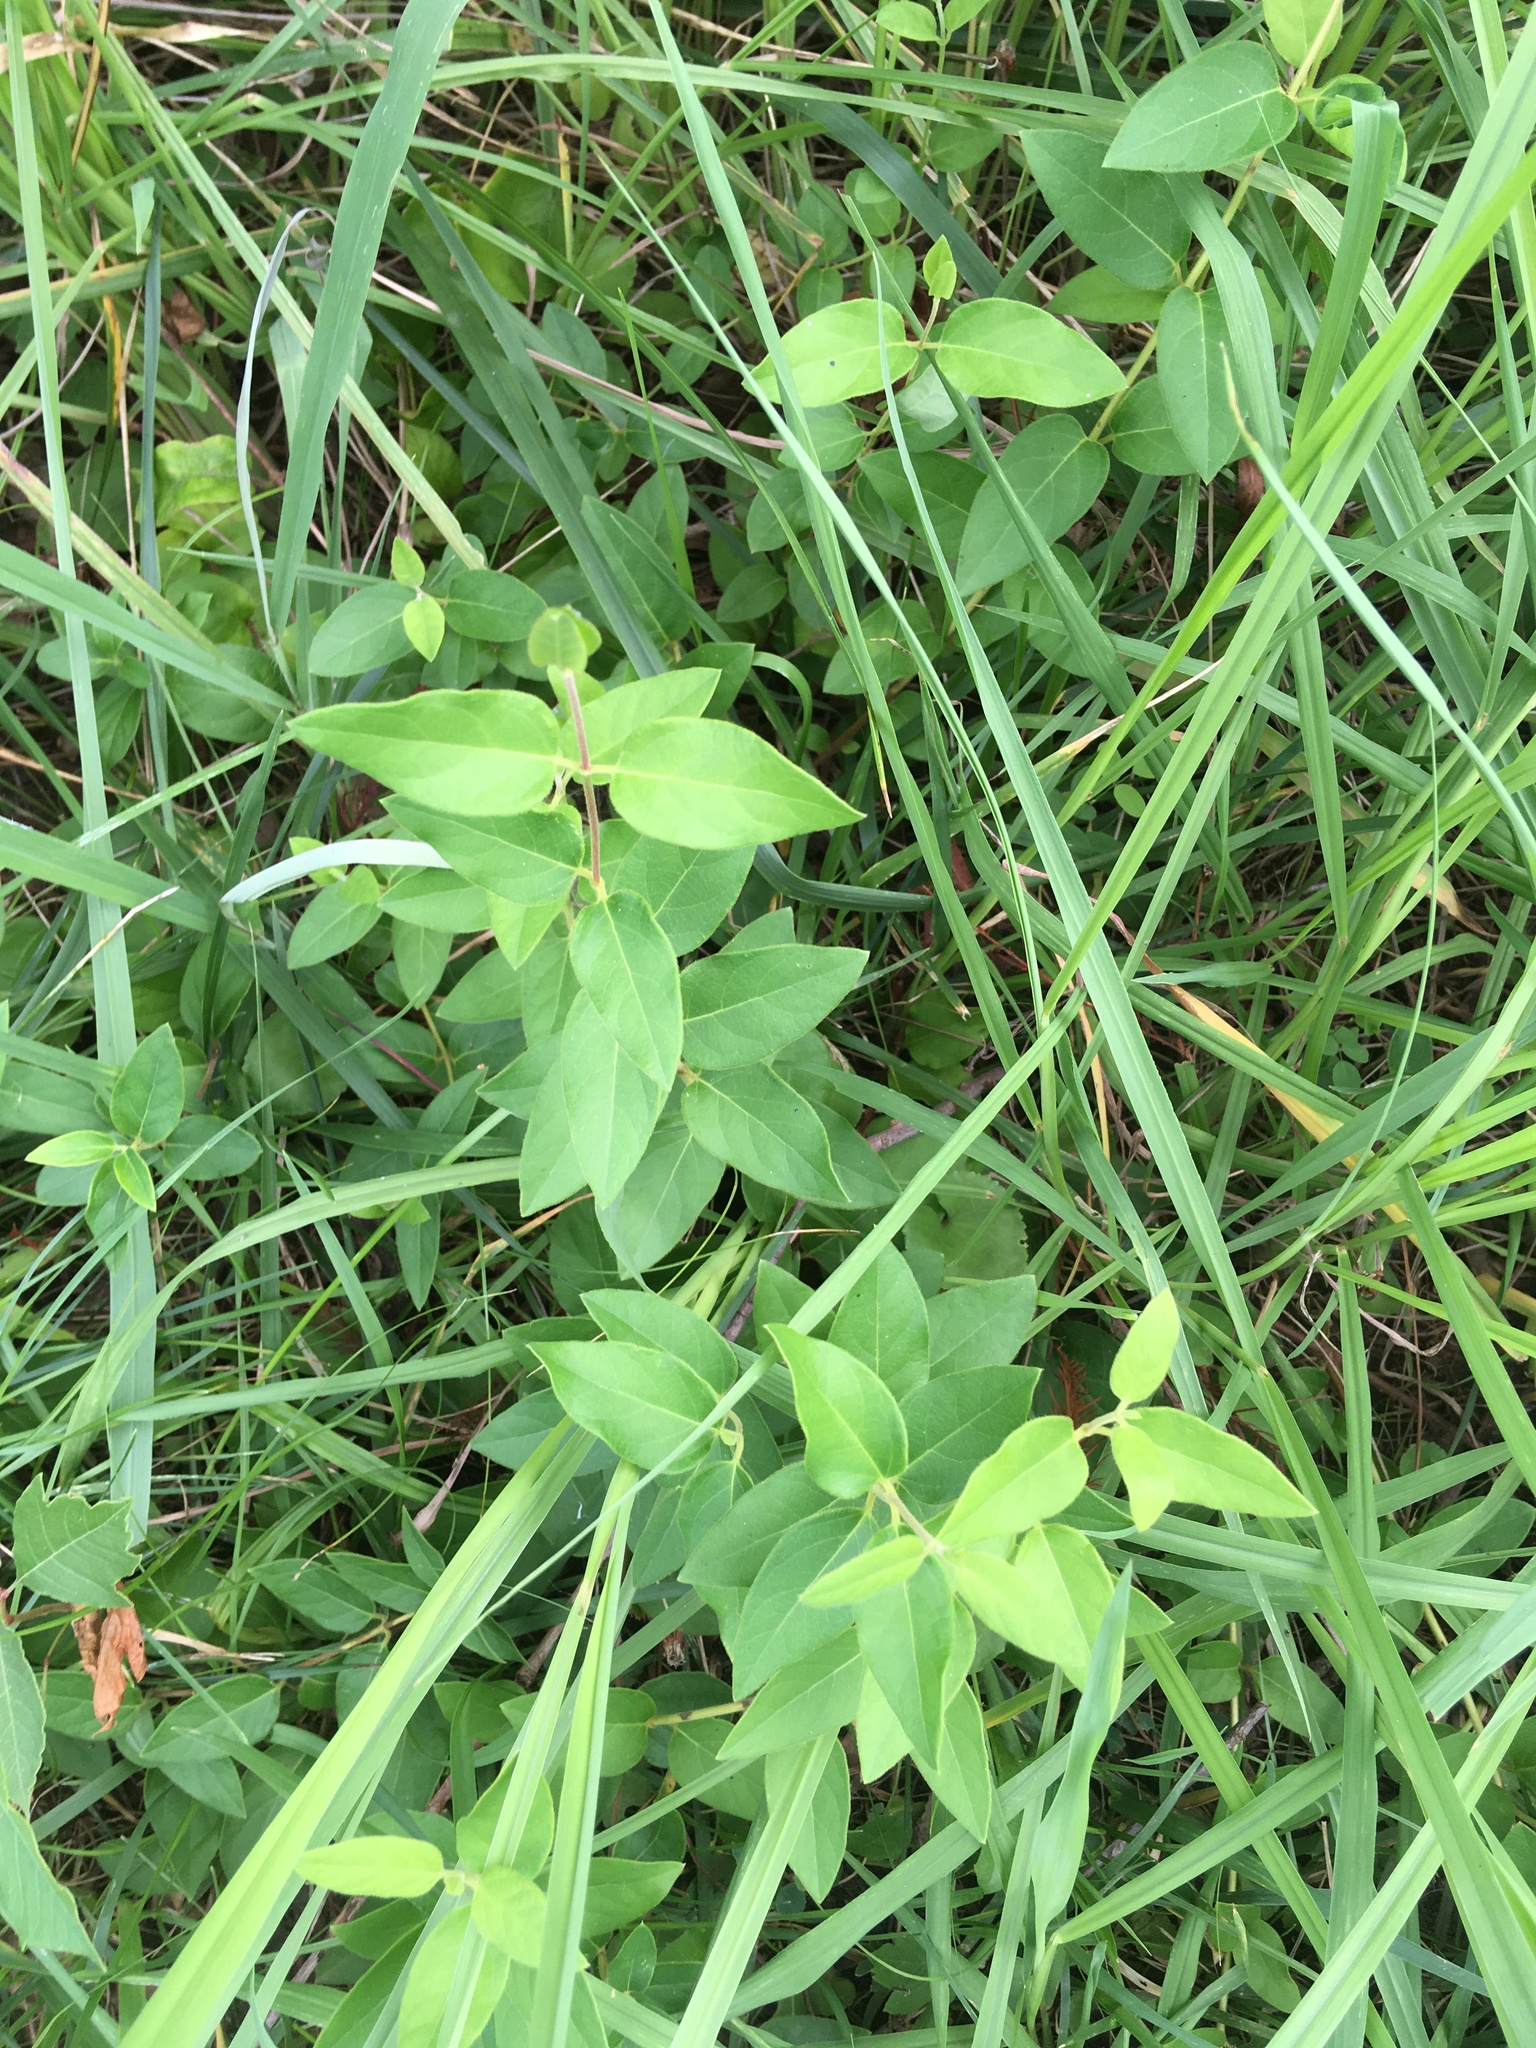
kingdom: Plantae
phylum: Tracheophyta
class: Magnoliopsida
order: Dipsacales
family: Caprifoliaceae
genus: Lonicera
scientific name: Lonicera japonica
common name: Japanese honeysuckle
